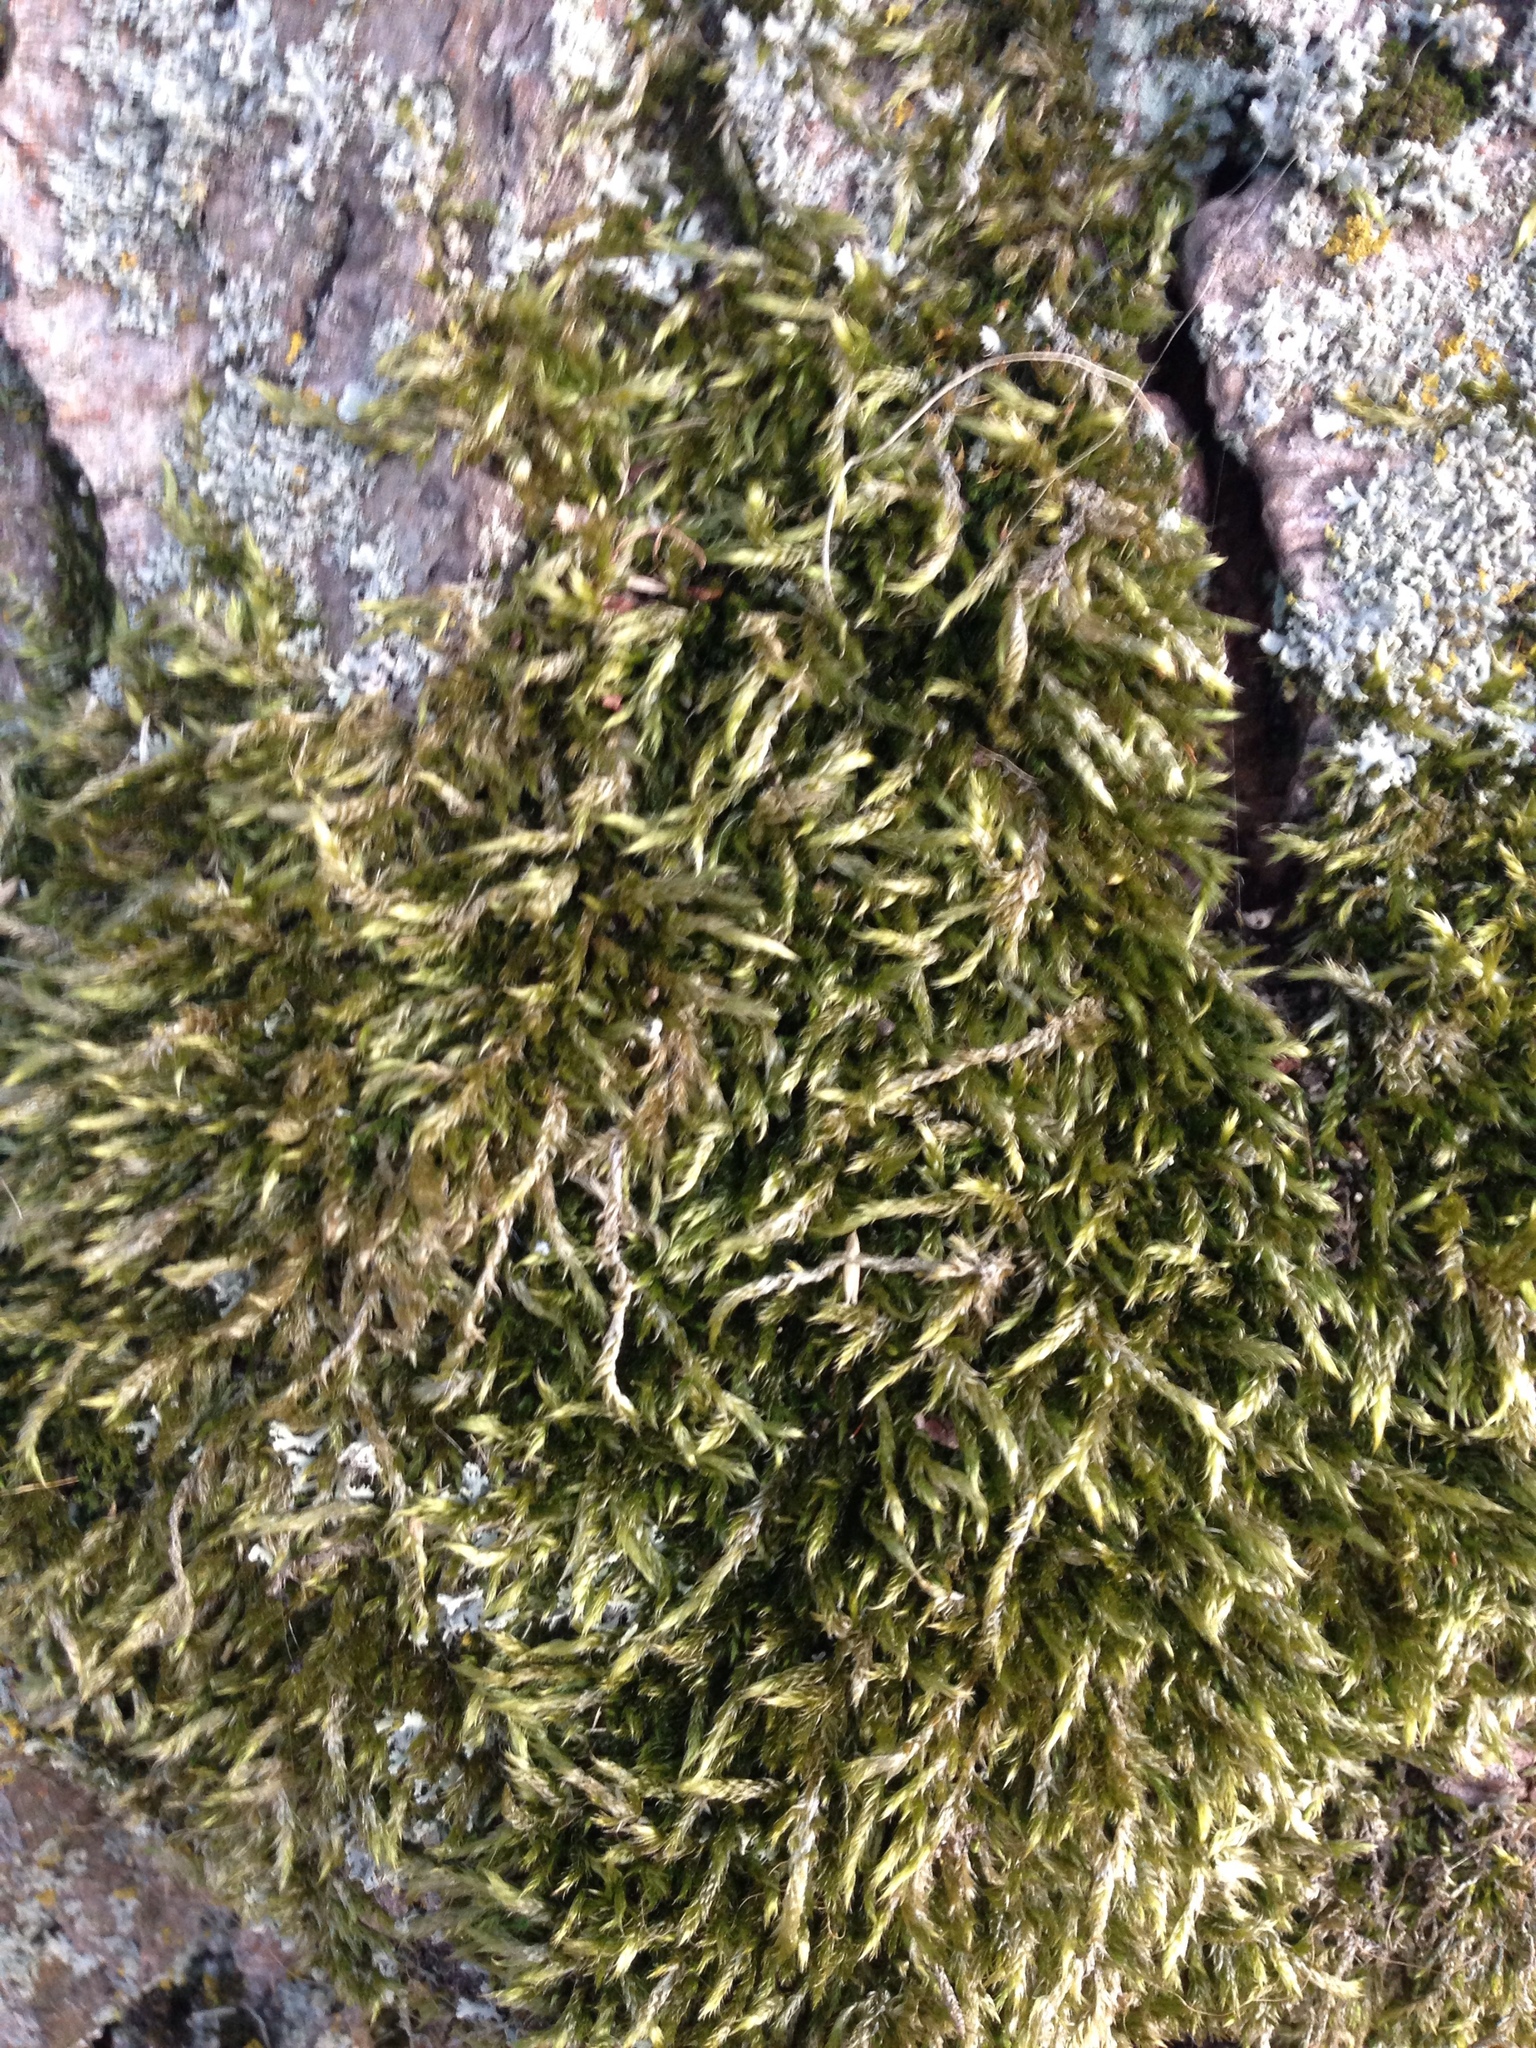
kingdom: Plantae
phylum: Bryophyta
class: Bryopsida
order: Hypnales
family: Brachytheciaceae
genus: Brachythecium
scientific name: Brachythecium
